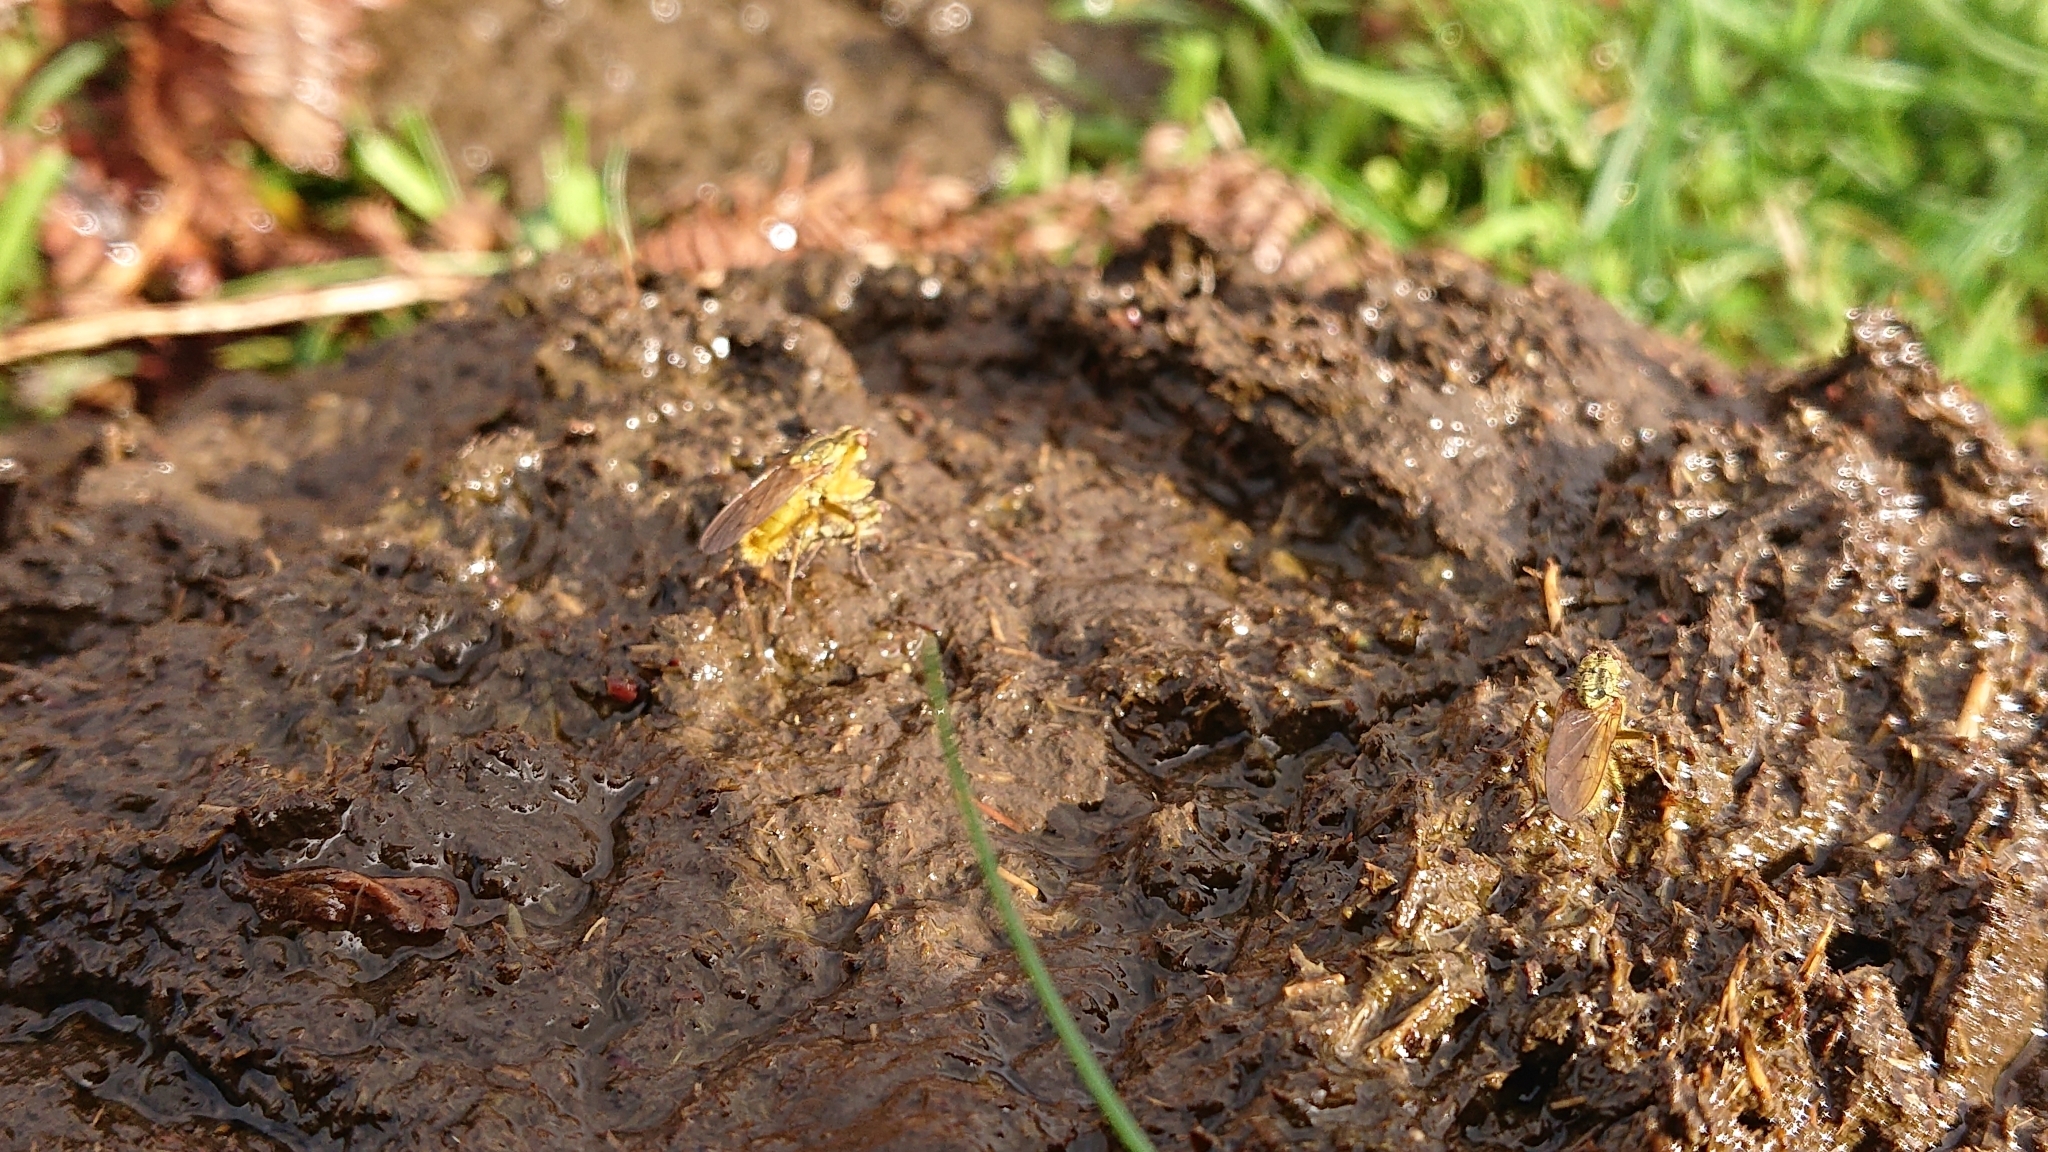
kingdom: Animalia
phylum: Arthropoda
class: Insecta
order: Diptera
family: Scathophagidae
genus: Scathophaga
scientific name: Scathophaga stercoraria
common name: Yellow dung fly
